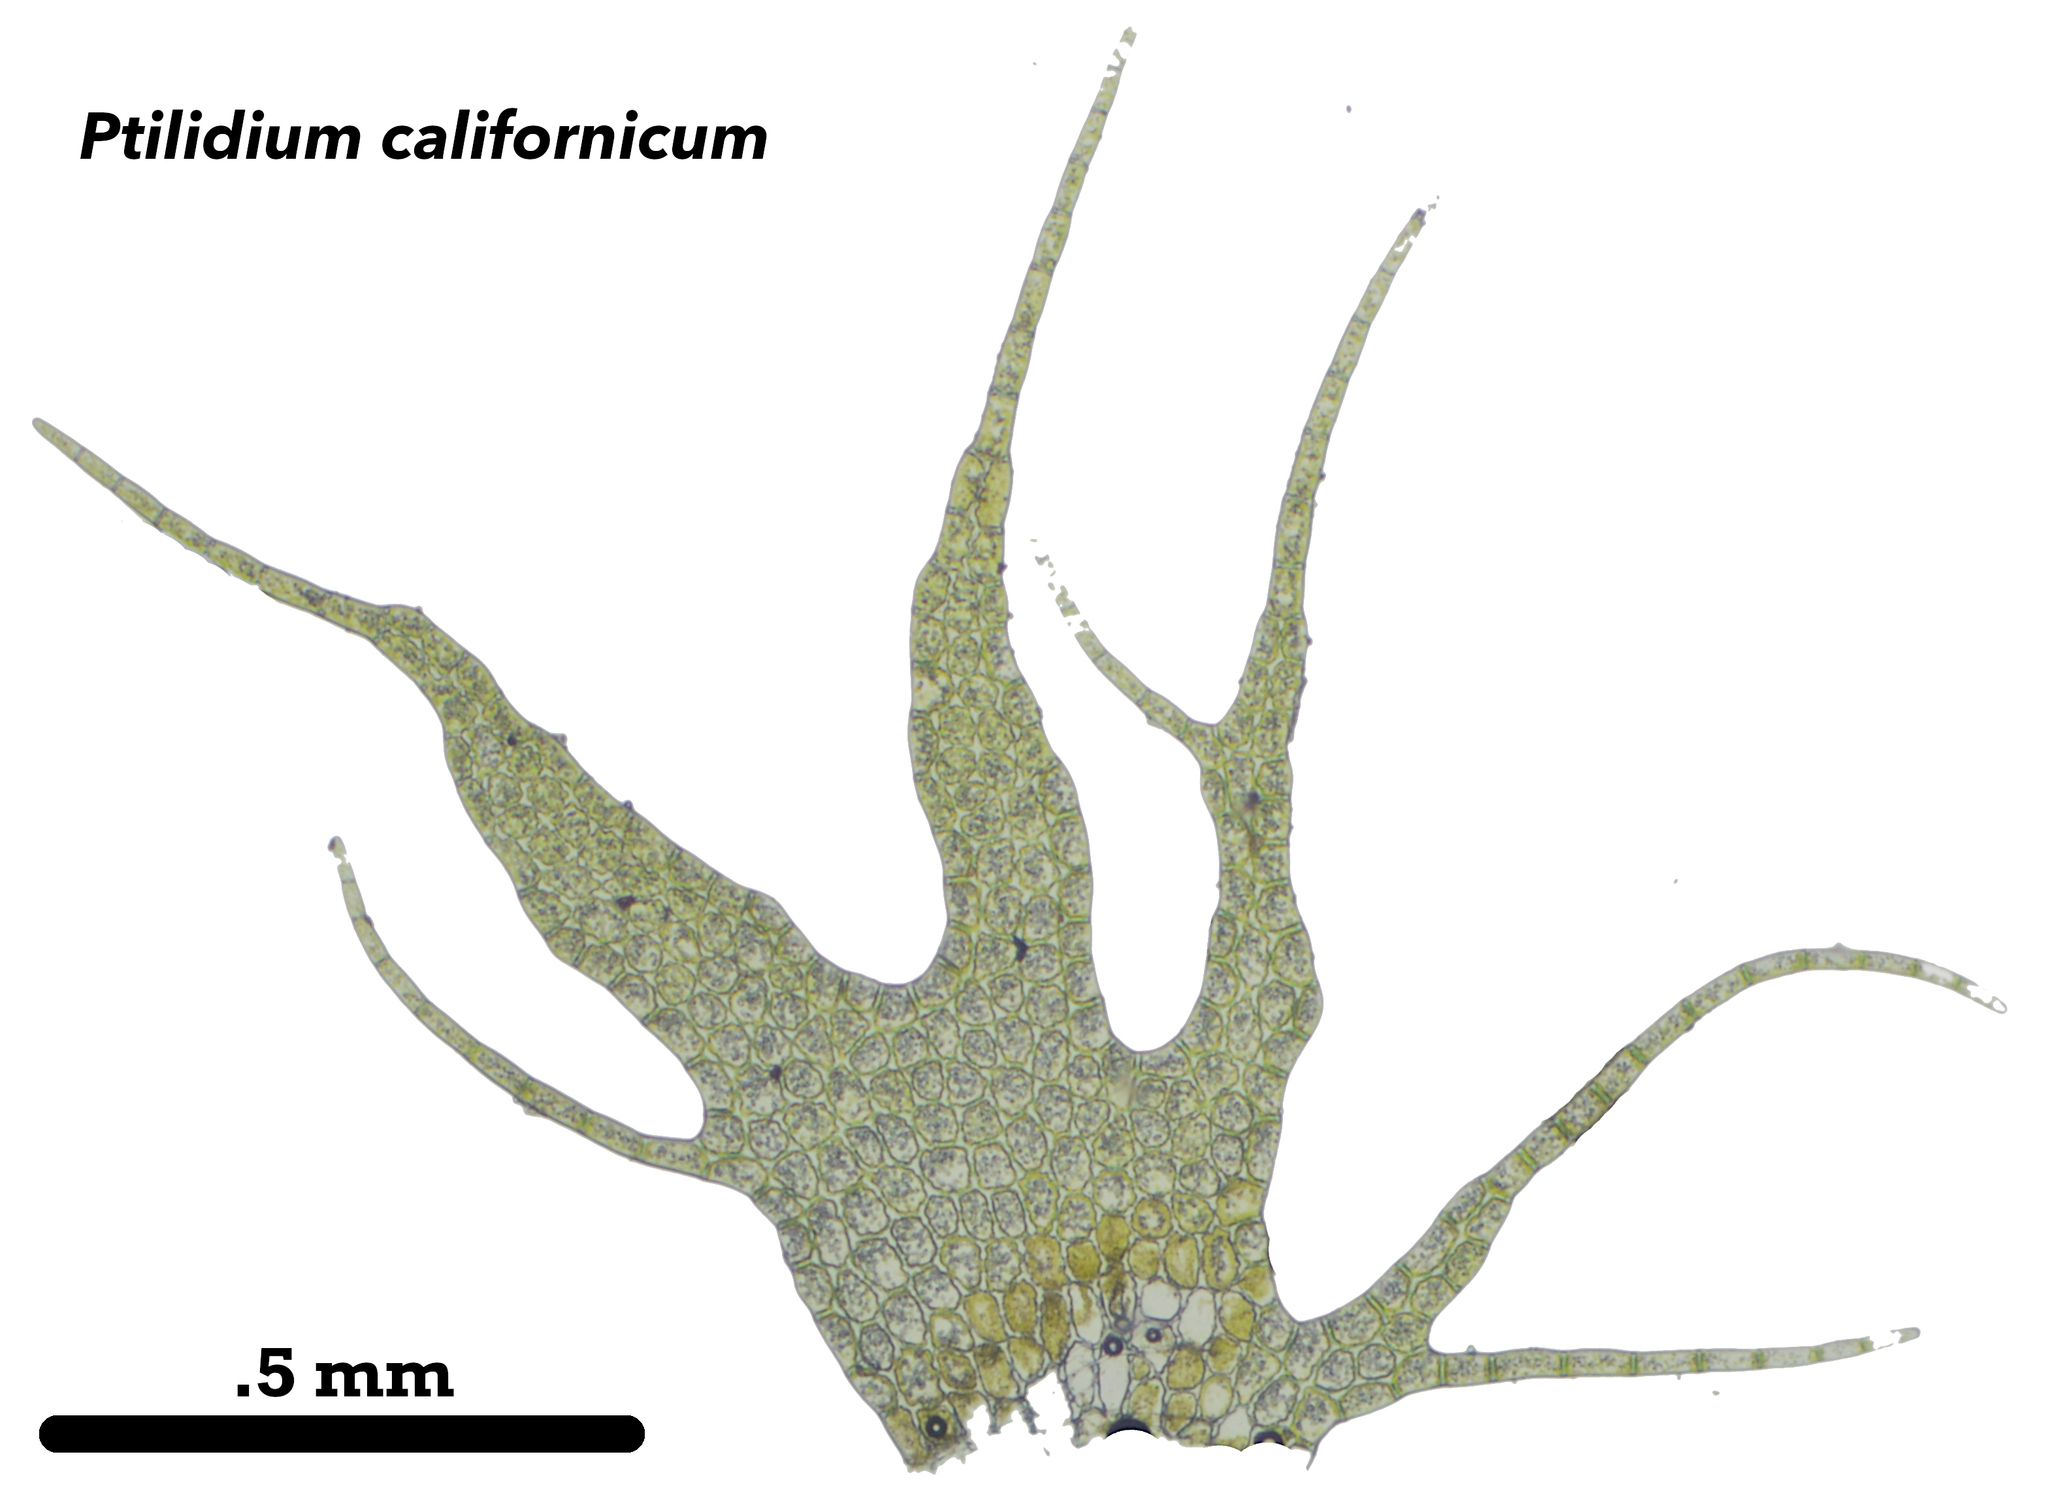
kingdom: Plantae
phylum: Marchantiophyta
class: Jungermanniopsida
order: Ptilidiales
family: Ptilidiaceae
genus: Ptilidium
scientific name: Ptilidium californicum
